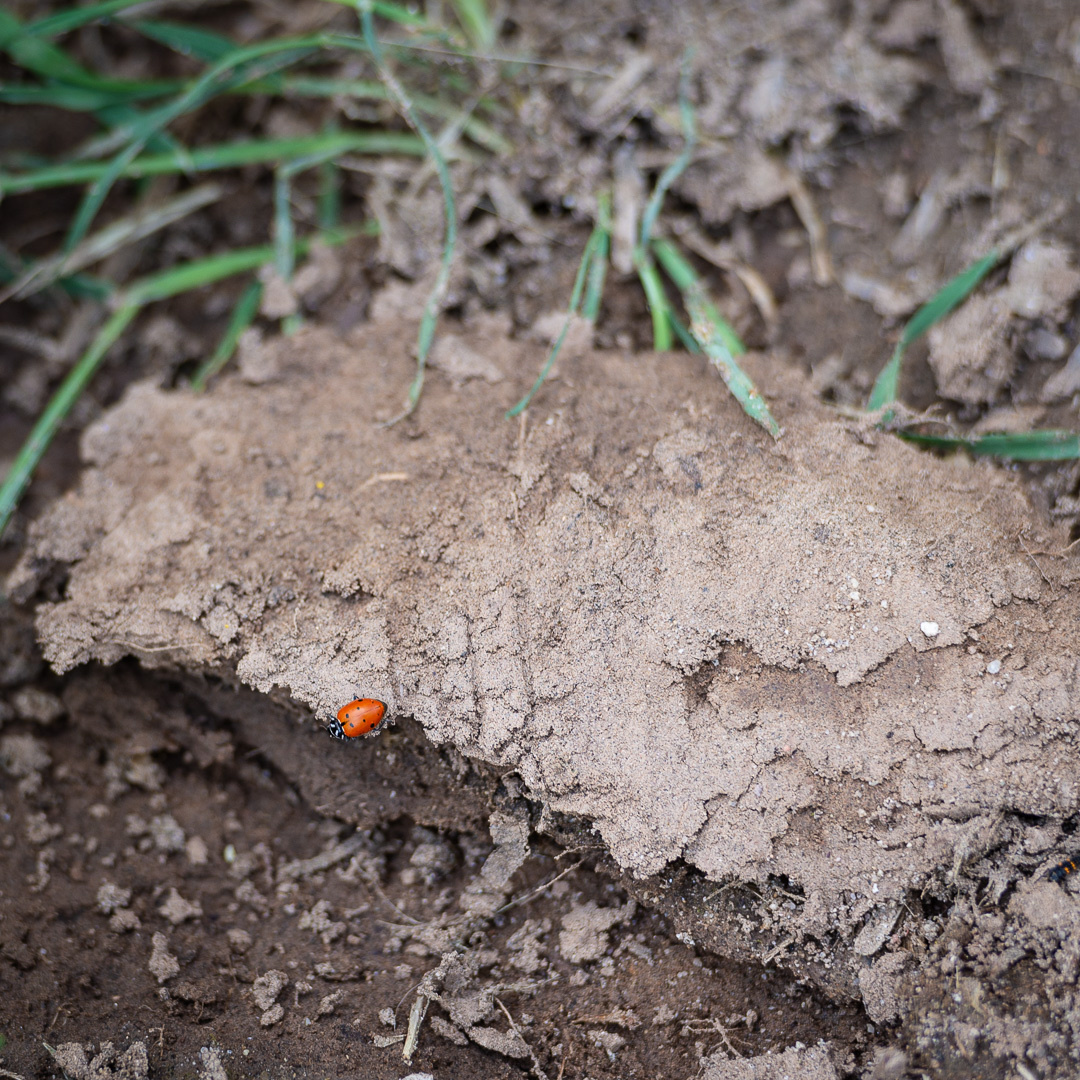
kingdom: Animalia
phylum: Arthropoda
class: Insecta
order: Coleoptera
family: Coccinellidae
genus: Hippodamia
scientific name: Hippodamia convergens
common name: Convergent lady beetle
